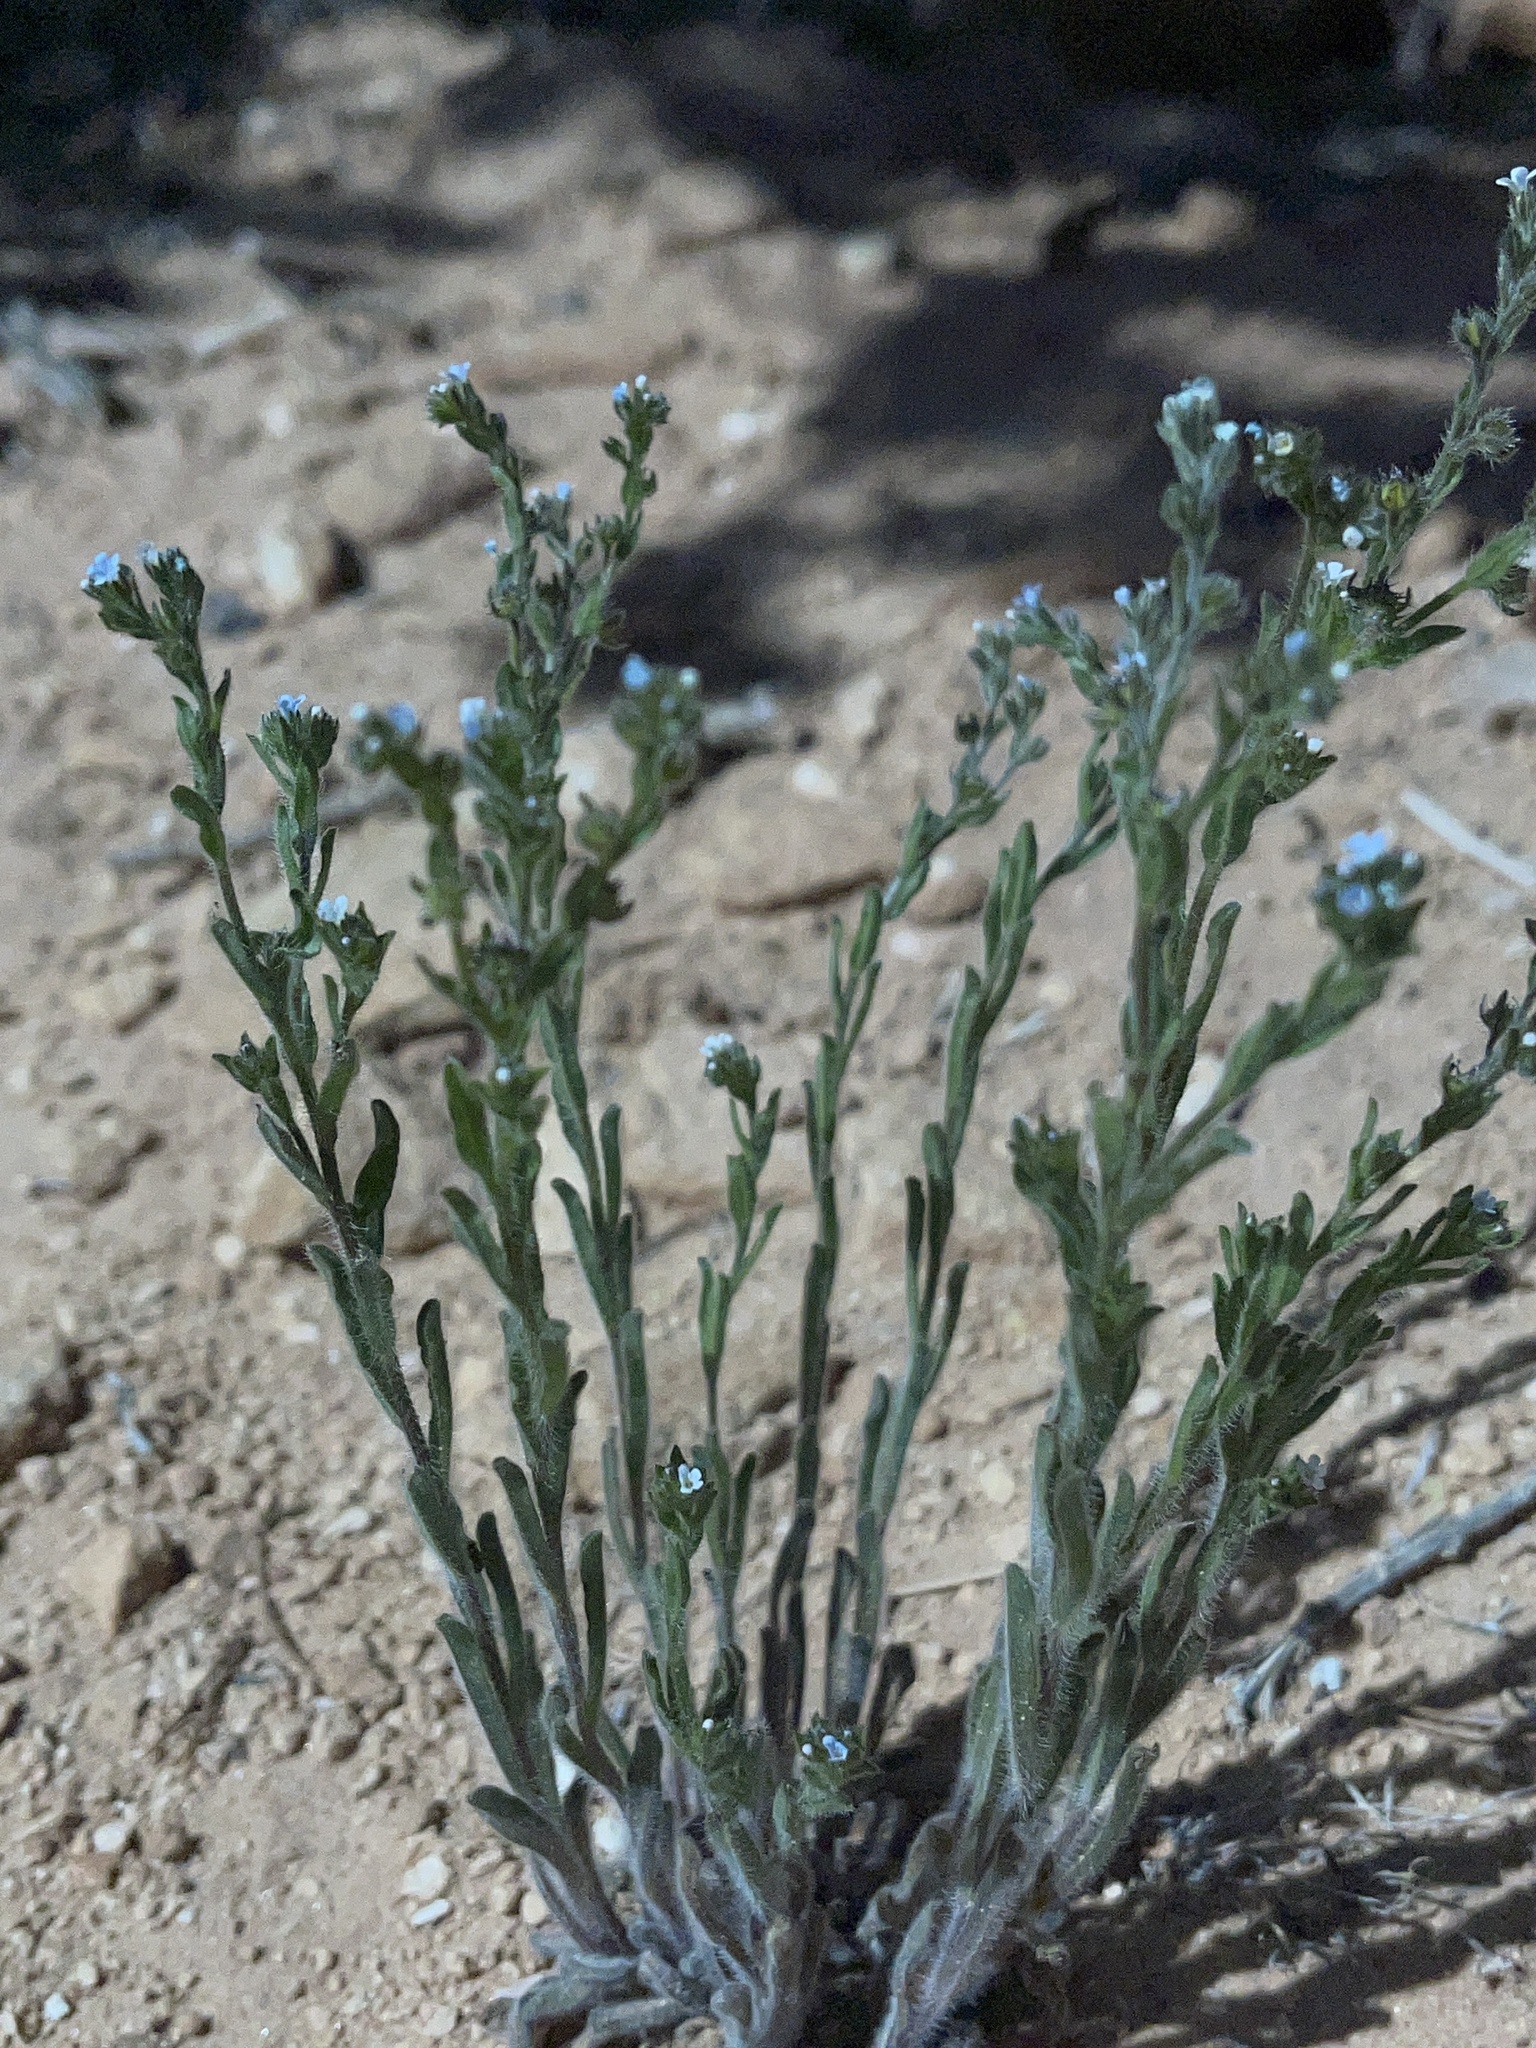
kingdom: Plantae
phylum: Tracheophyta
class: Magnoliopsida
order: Boraginales
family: Boraginaceae
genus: Lappula
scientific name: Lappula occidentalis
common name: Western stickseed
